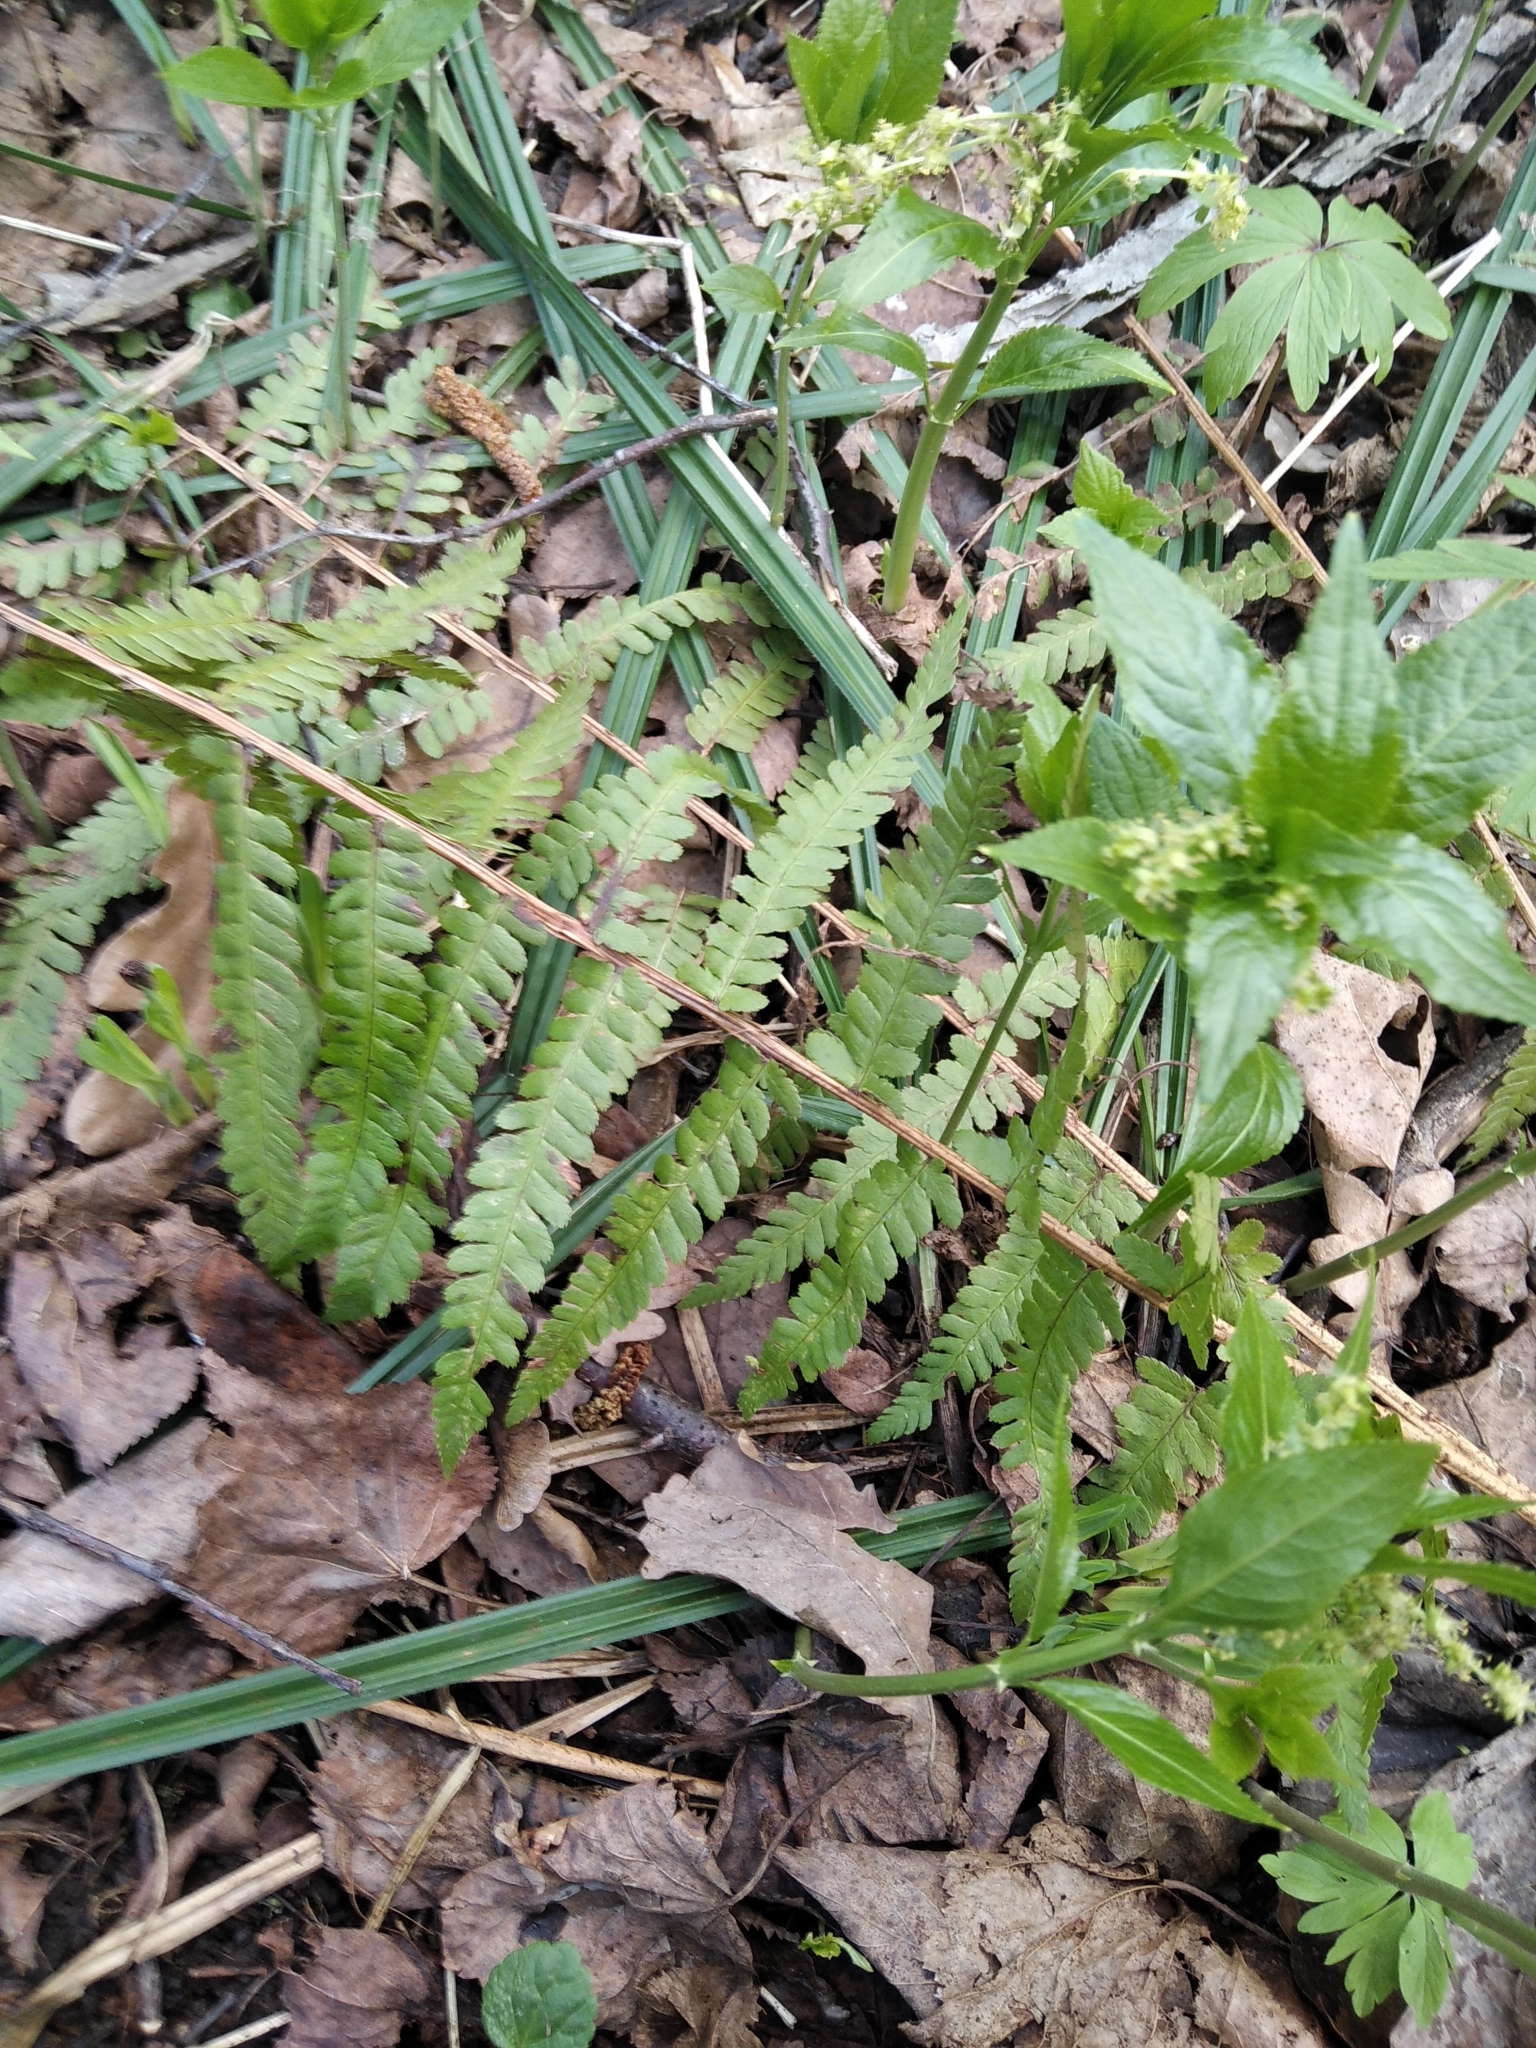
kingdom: Plantae
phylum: Tracheophyta
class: Polypodiopsida
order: Polypodiales
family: Dryopteridaceae
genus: Dryopteris
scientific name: Dryopteris filix-mas
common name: Male fern
